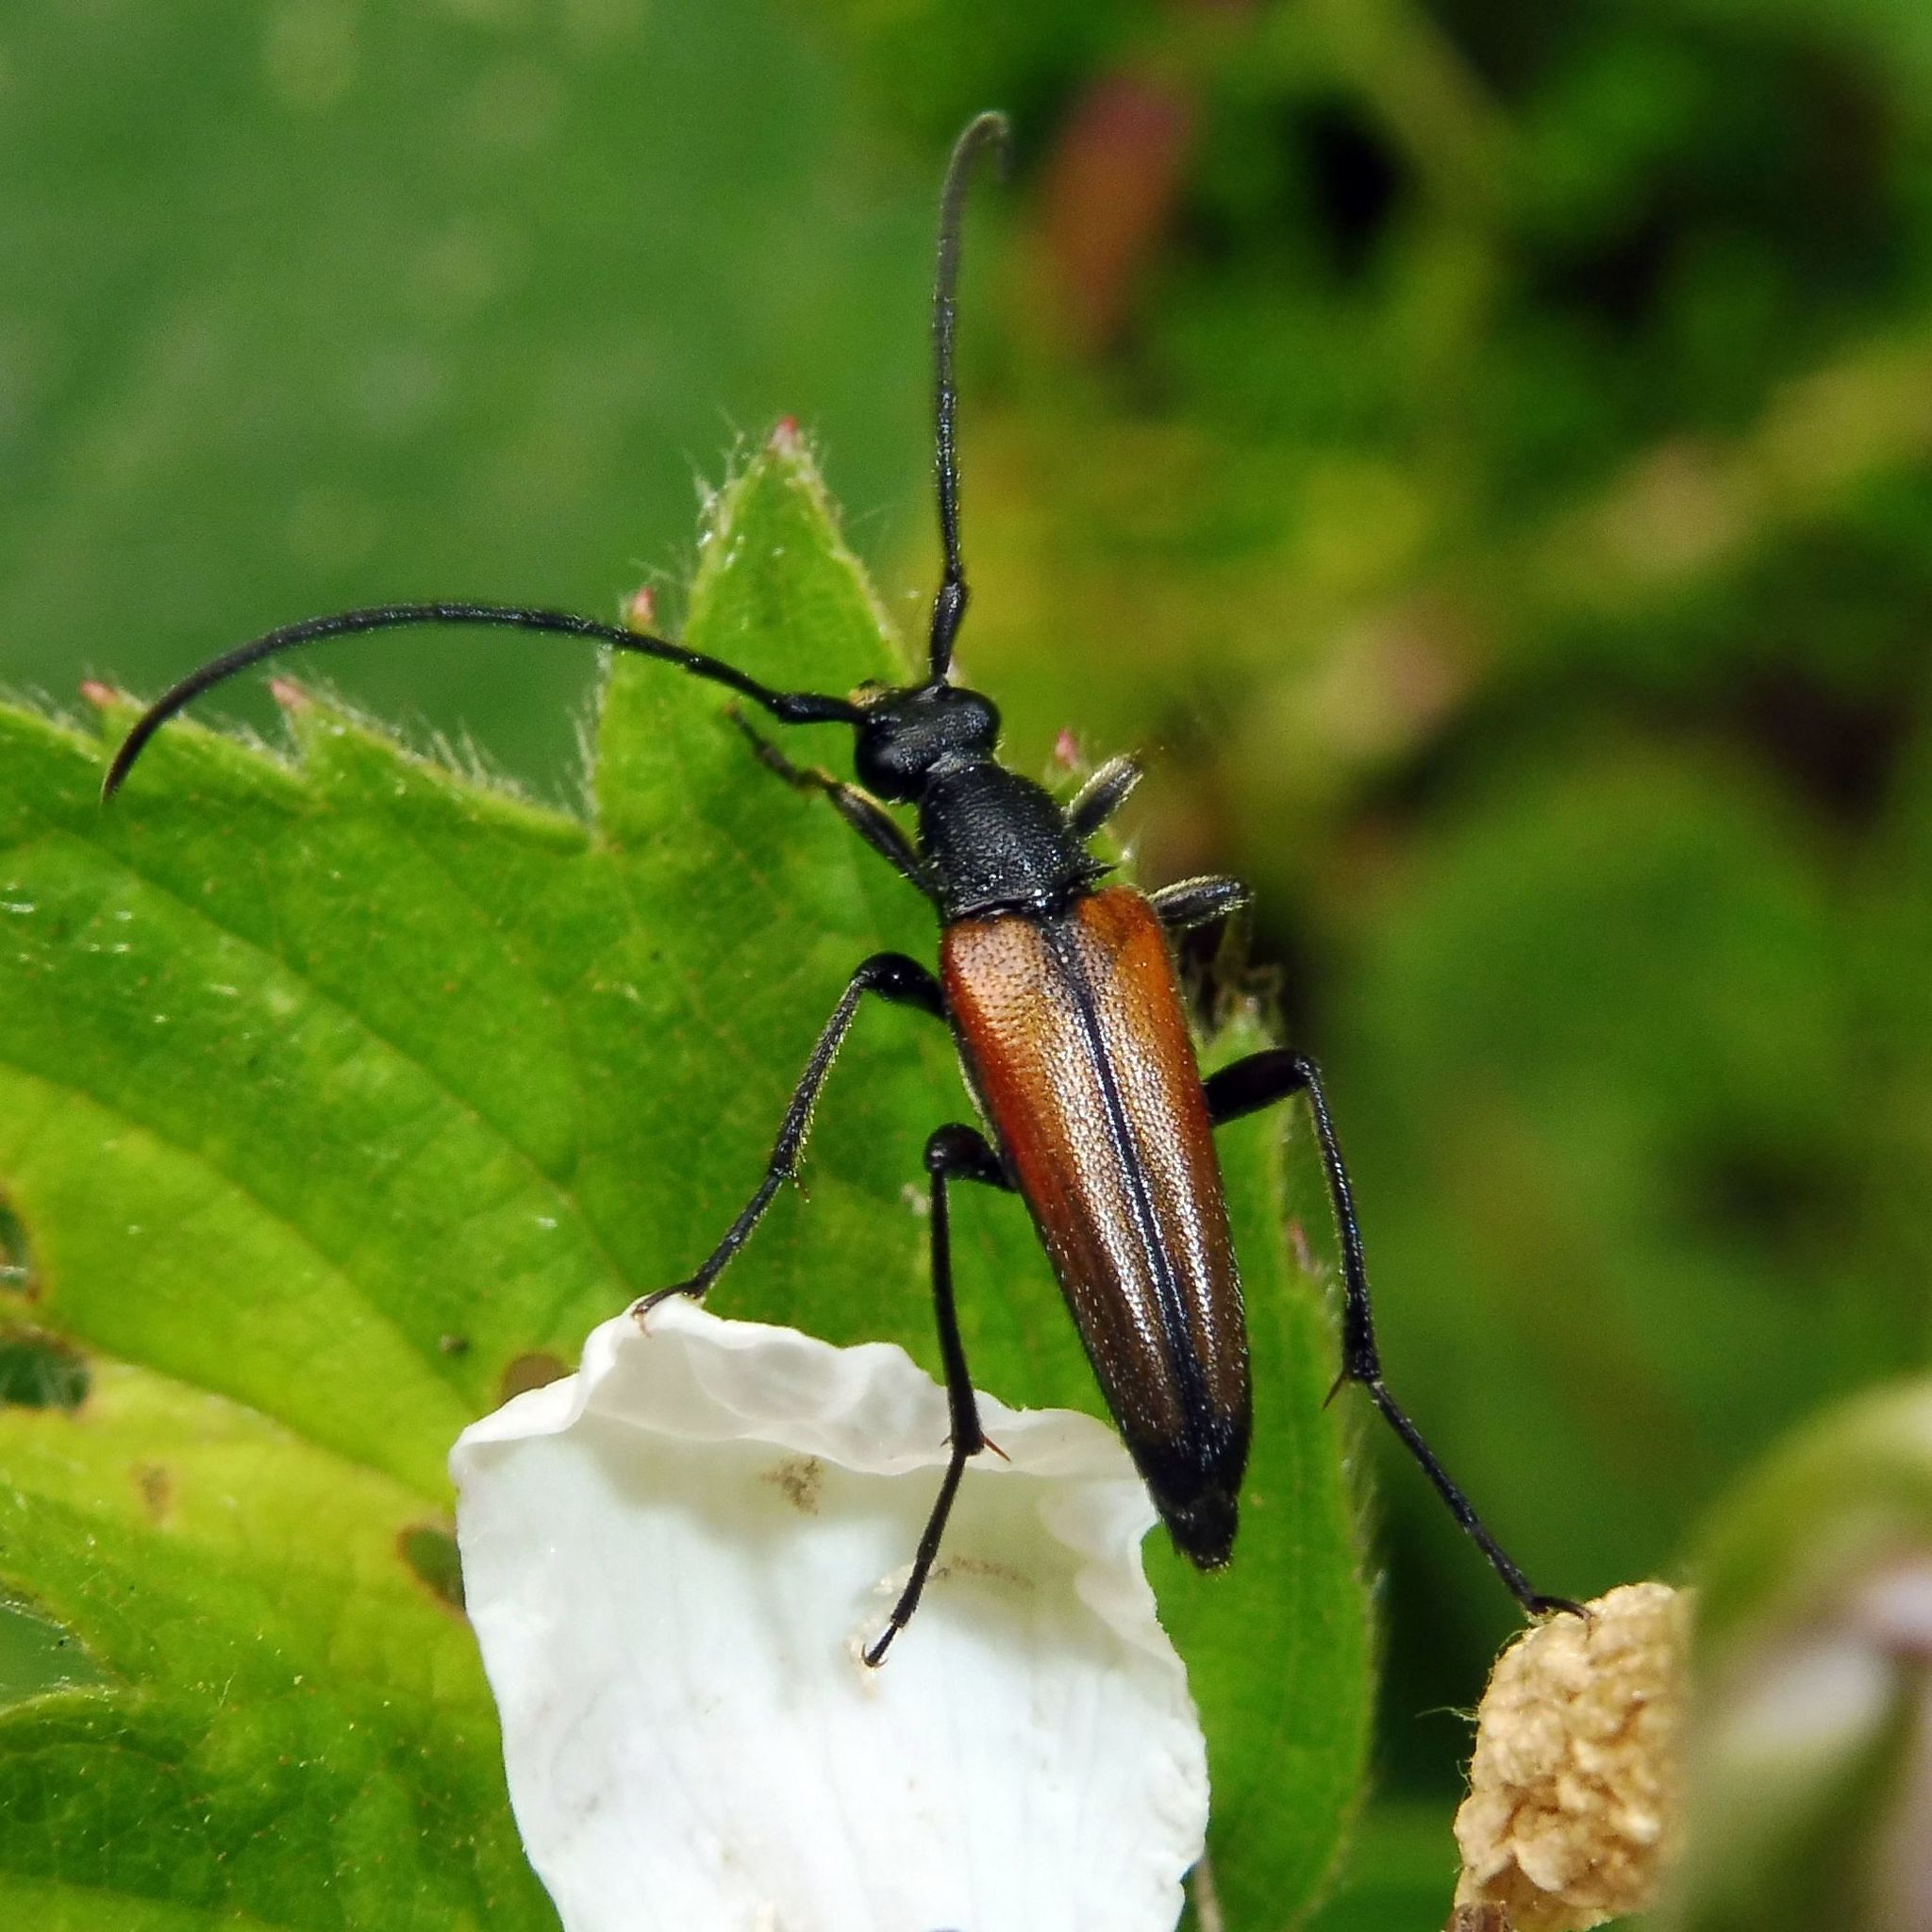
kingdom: Animalia
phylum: Arthropoda
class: Insecta
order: Coleoptera
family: Cerambycidae
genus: Stenurella
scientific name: Stenurella melanura
